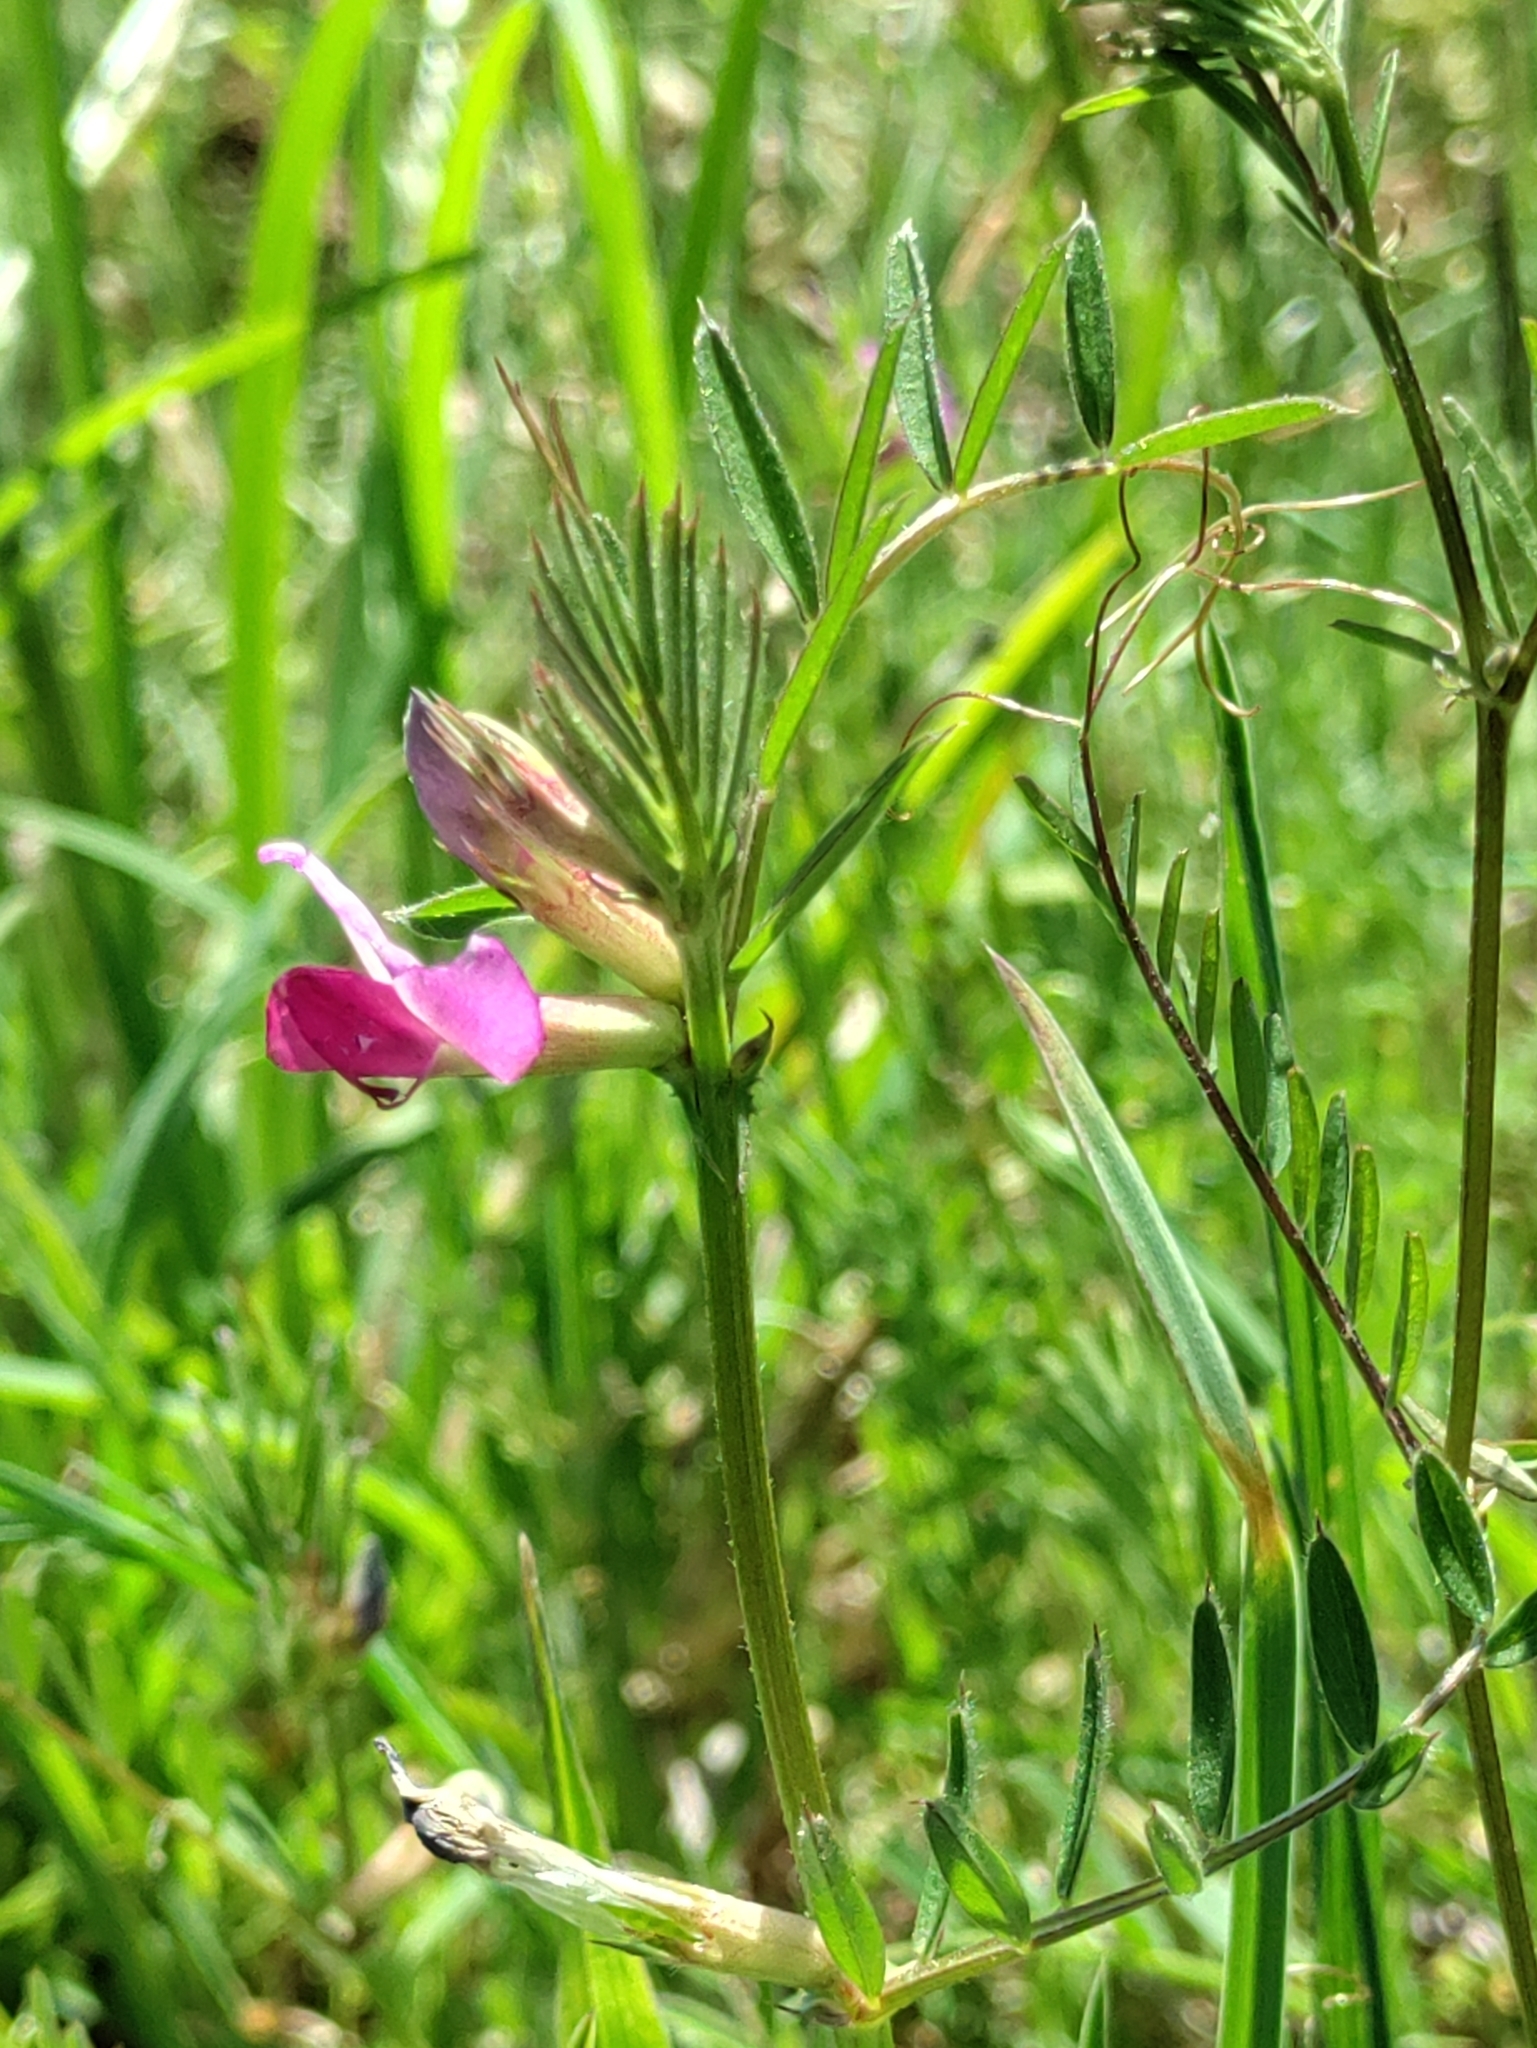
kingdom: Plantae
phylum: Tracheophyta
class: Magnoliopsida
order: Fabales
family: Fabaceae
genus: Vicia
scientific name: Vicia sativa
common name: Garden vetch
